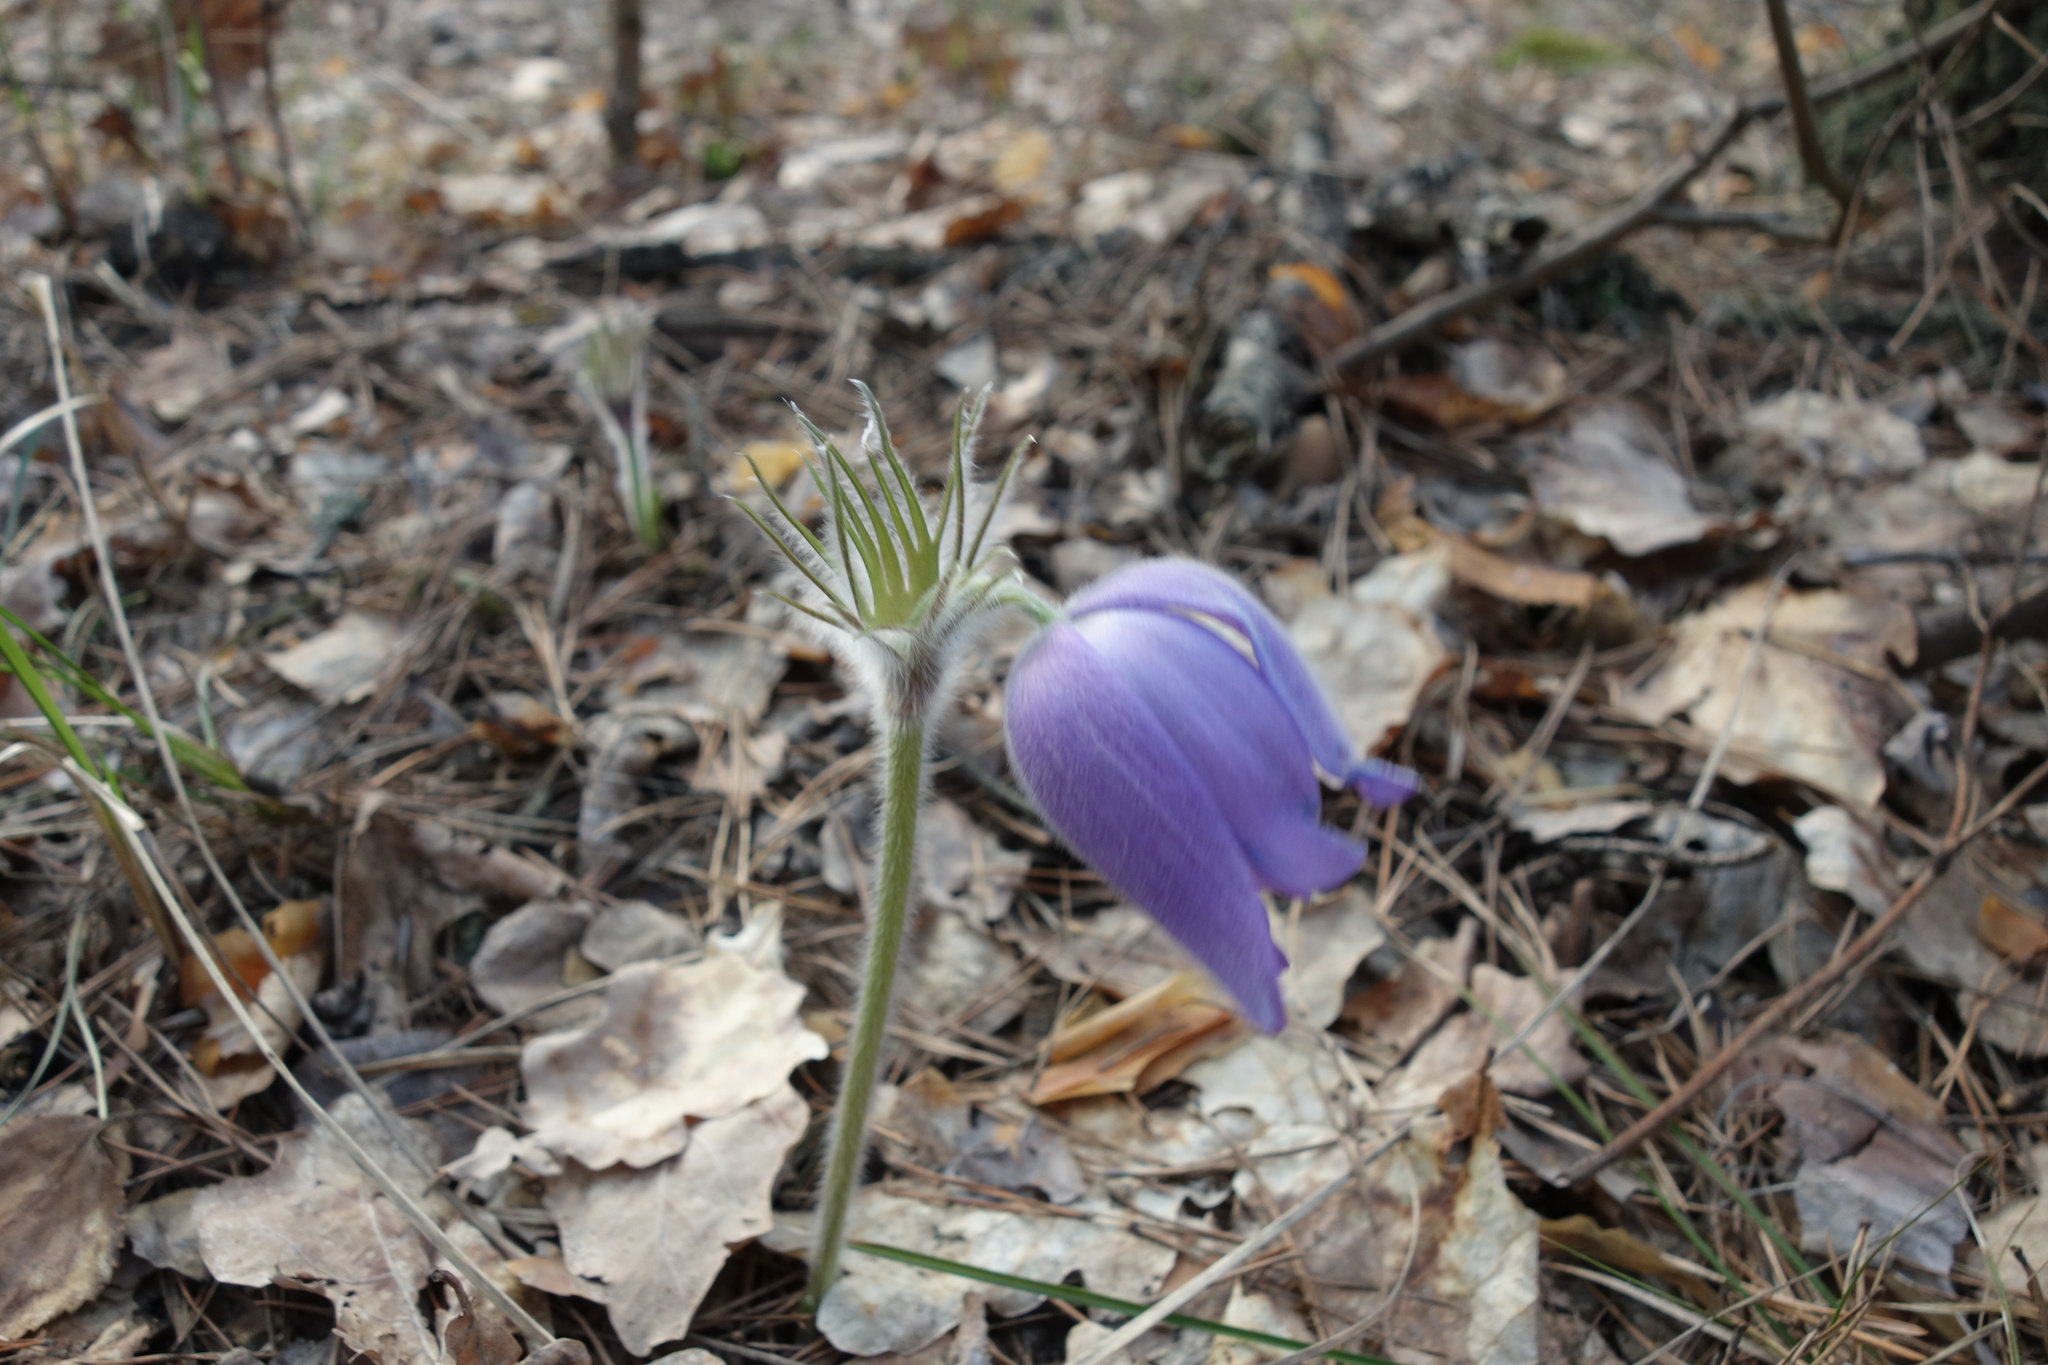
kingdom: Plantae
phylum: Tracheophyta
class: Magnoliopsida
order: Ranunculales
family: Ranunculaceae
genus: Pulsatilla
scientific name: Pulsatilla patens
